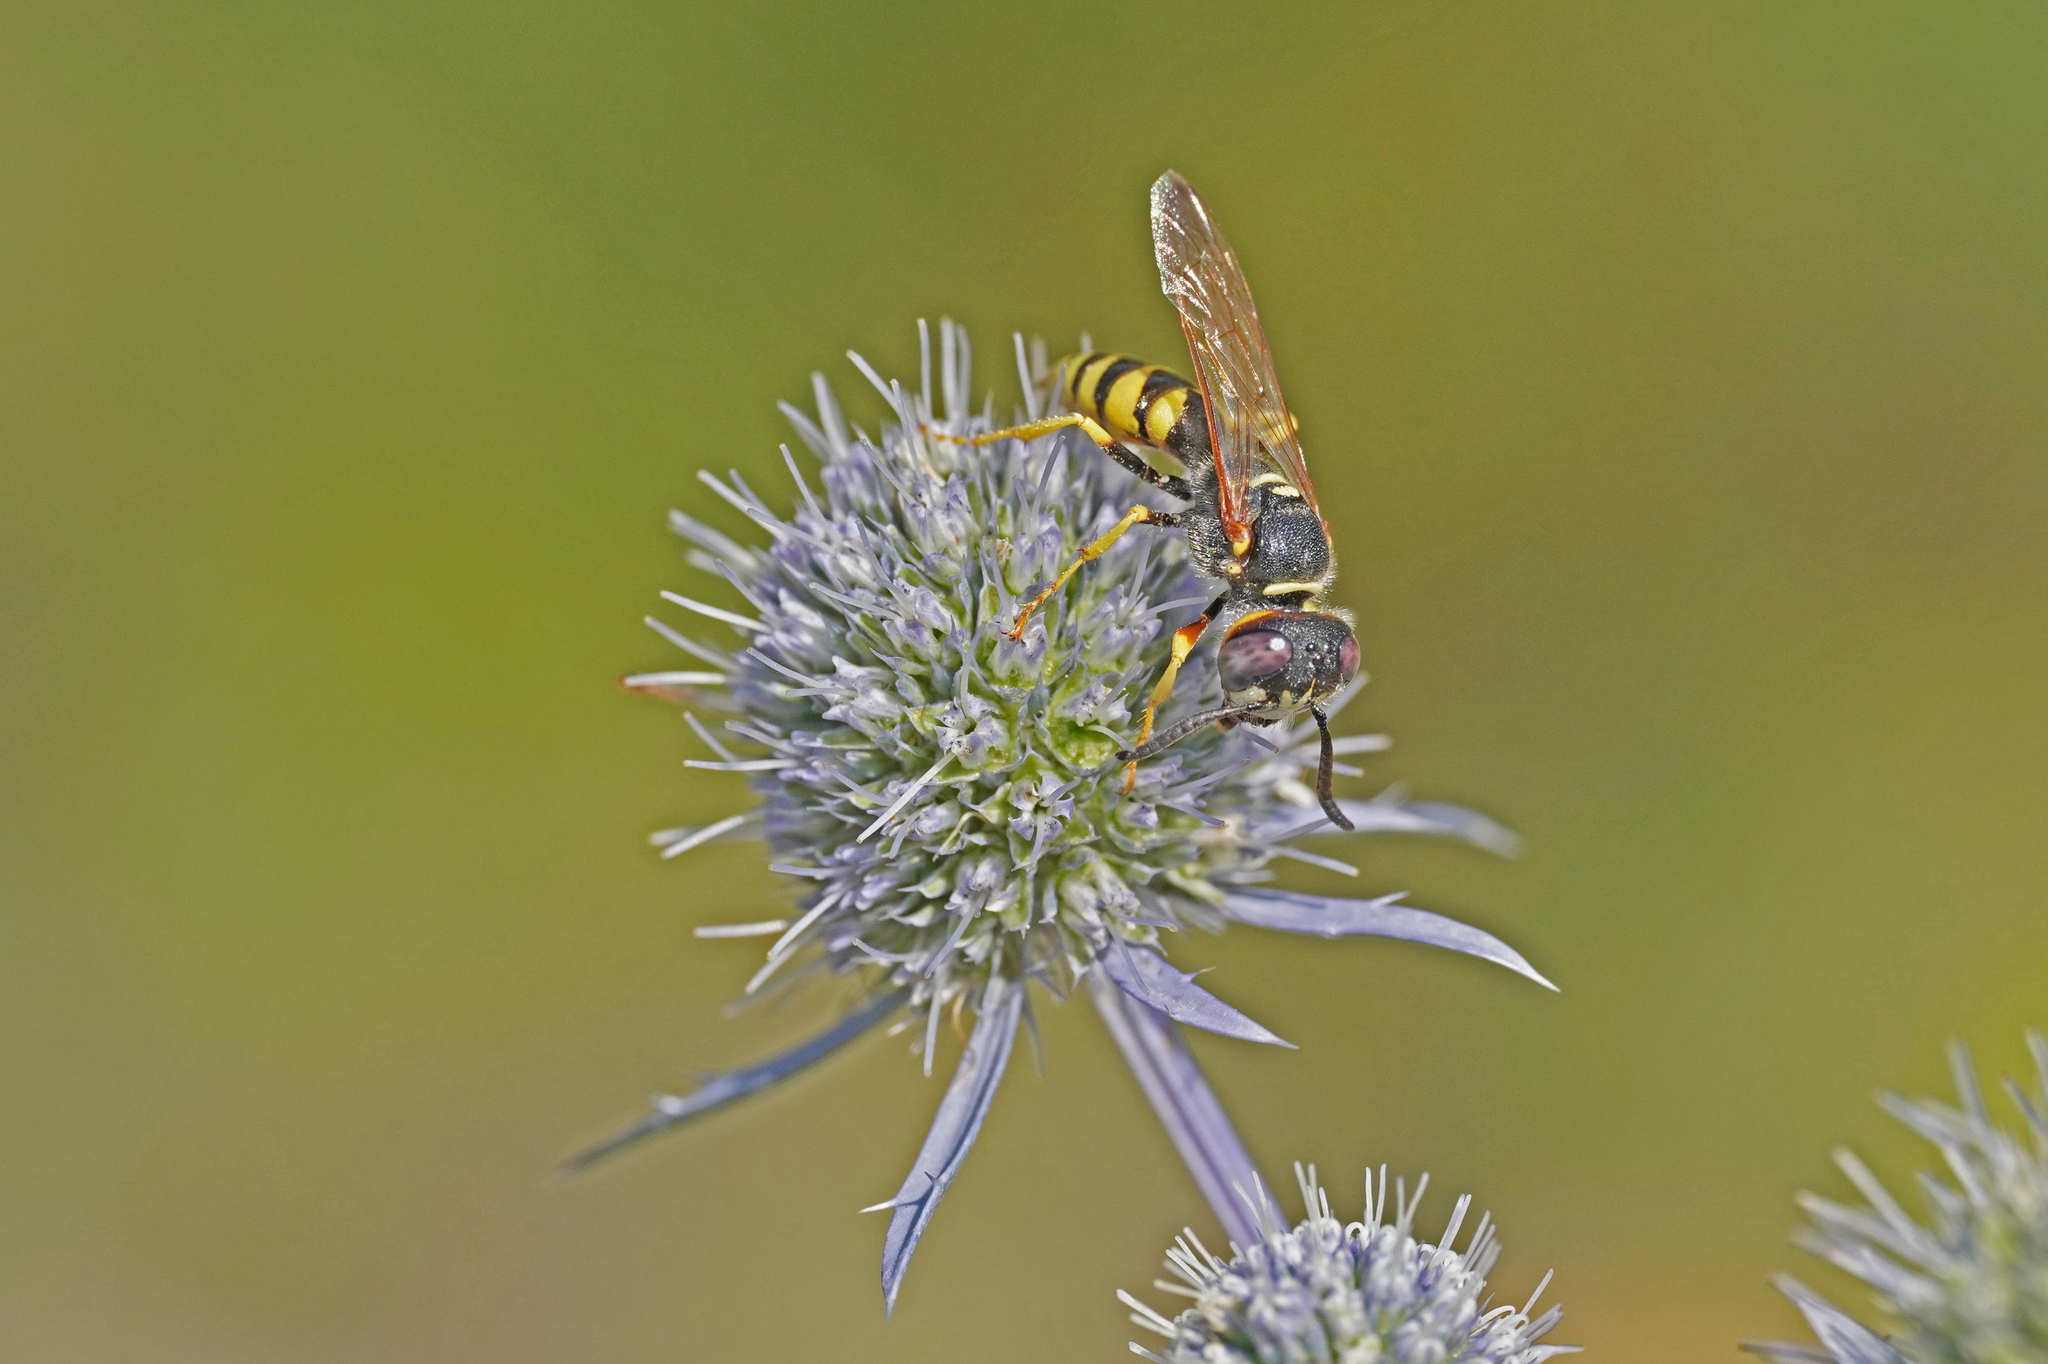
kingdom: Animalia
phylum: Arthropoda
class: Insecta
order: Hymenoptera
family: Crabronidae
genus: Philanthus
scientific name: Philanthus triangulum
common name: Bee wolf
